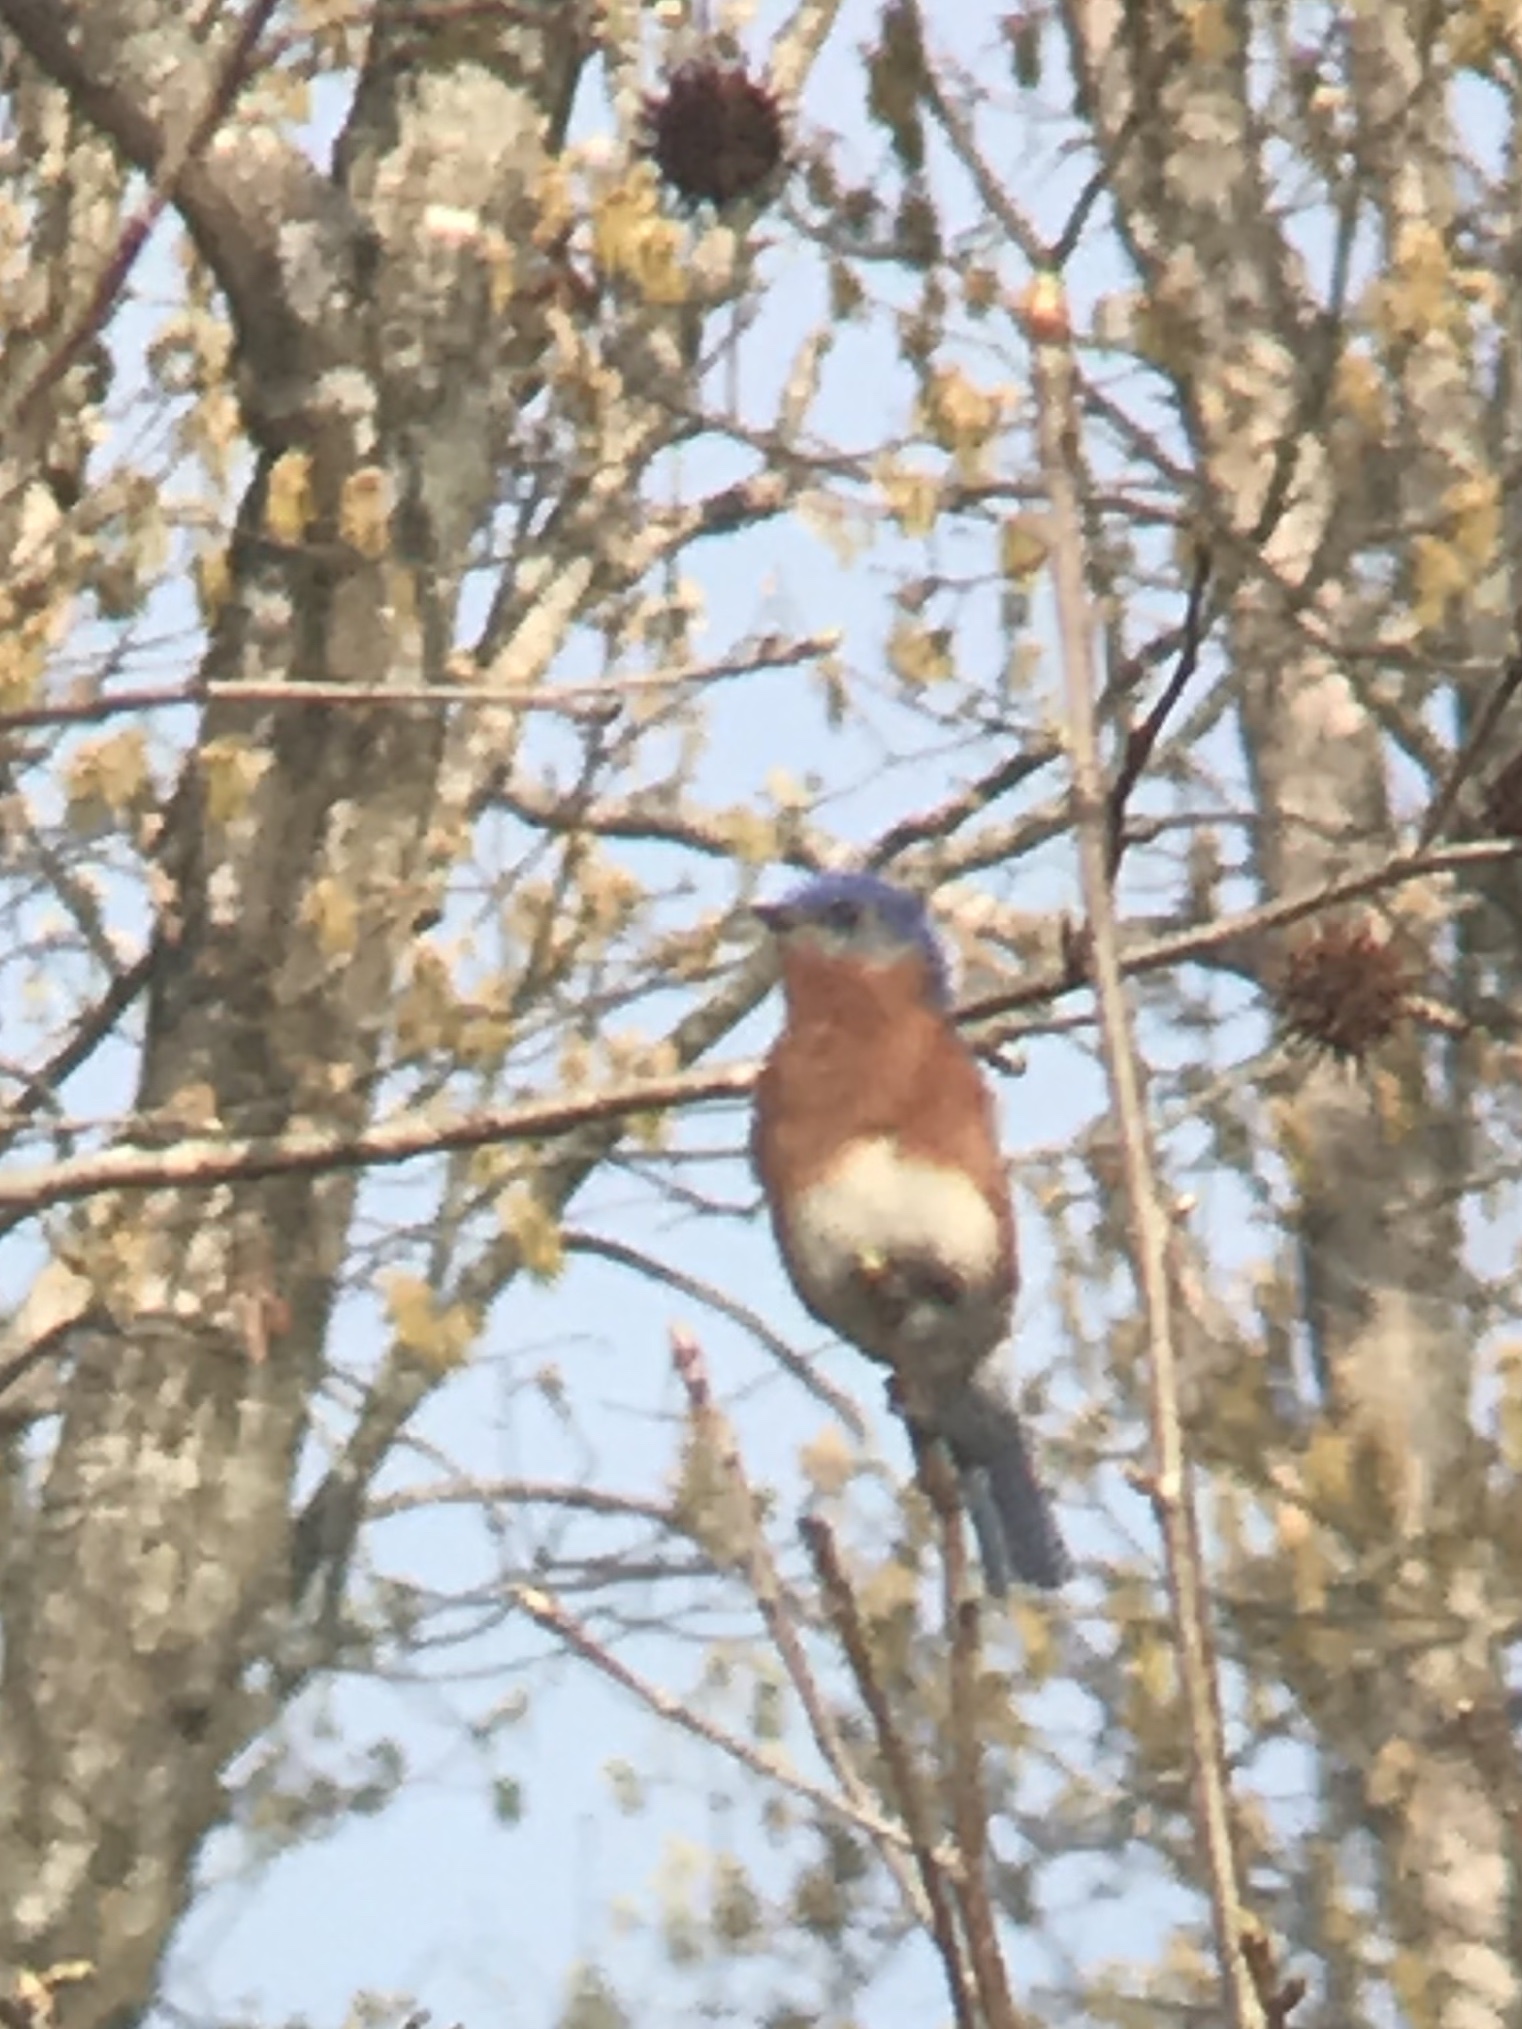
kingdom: Animalia
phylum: Chordata
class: Aves
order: Passeriformes
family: Turdidae
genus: Sialia
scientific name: Sialia sialis
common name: Eastern bluebird
